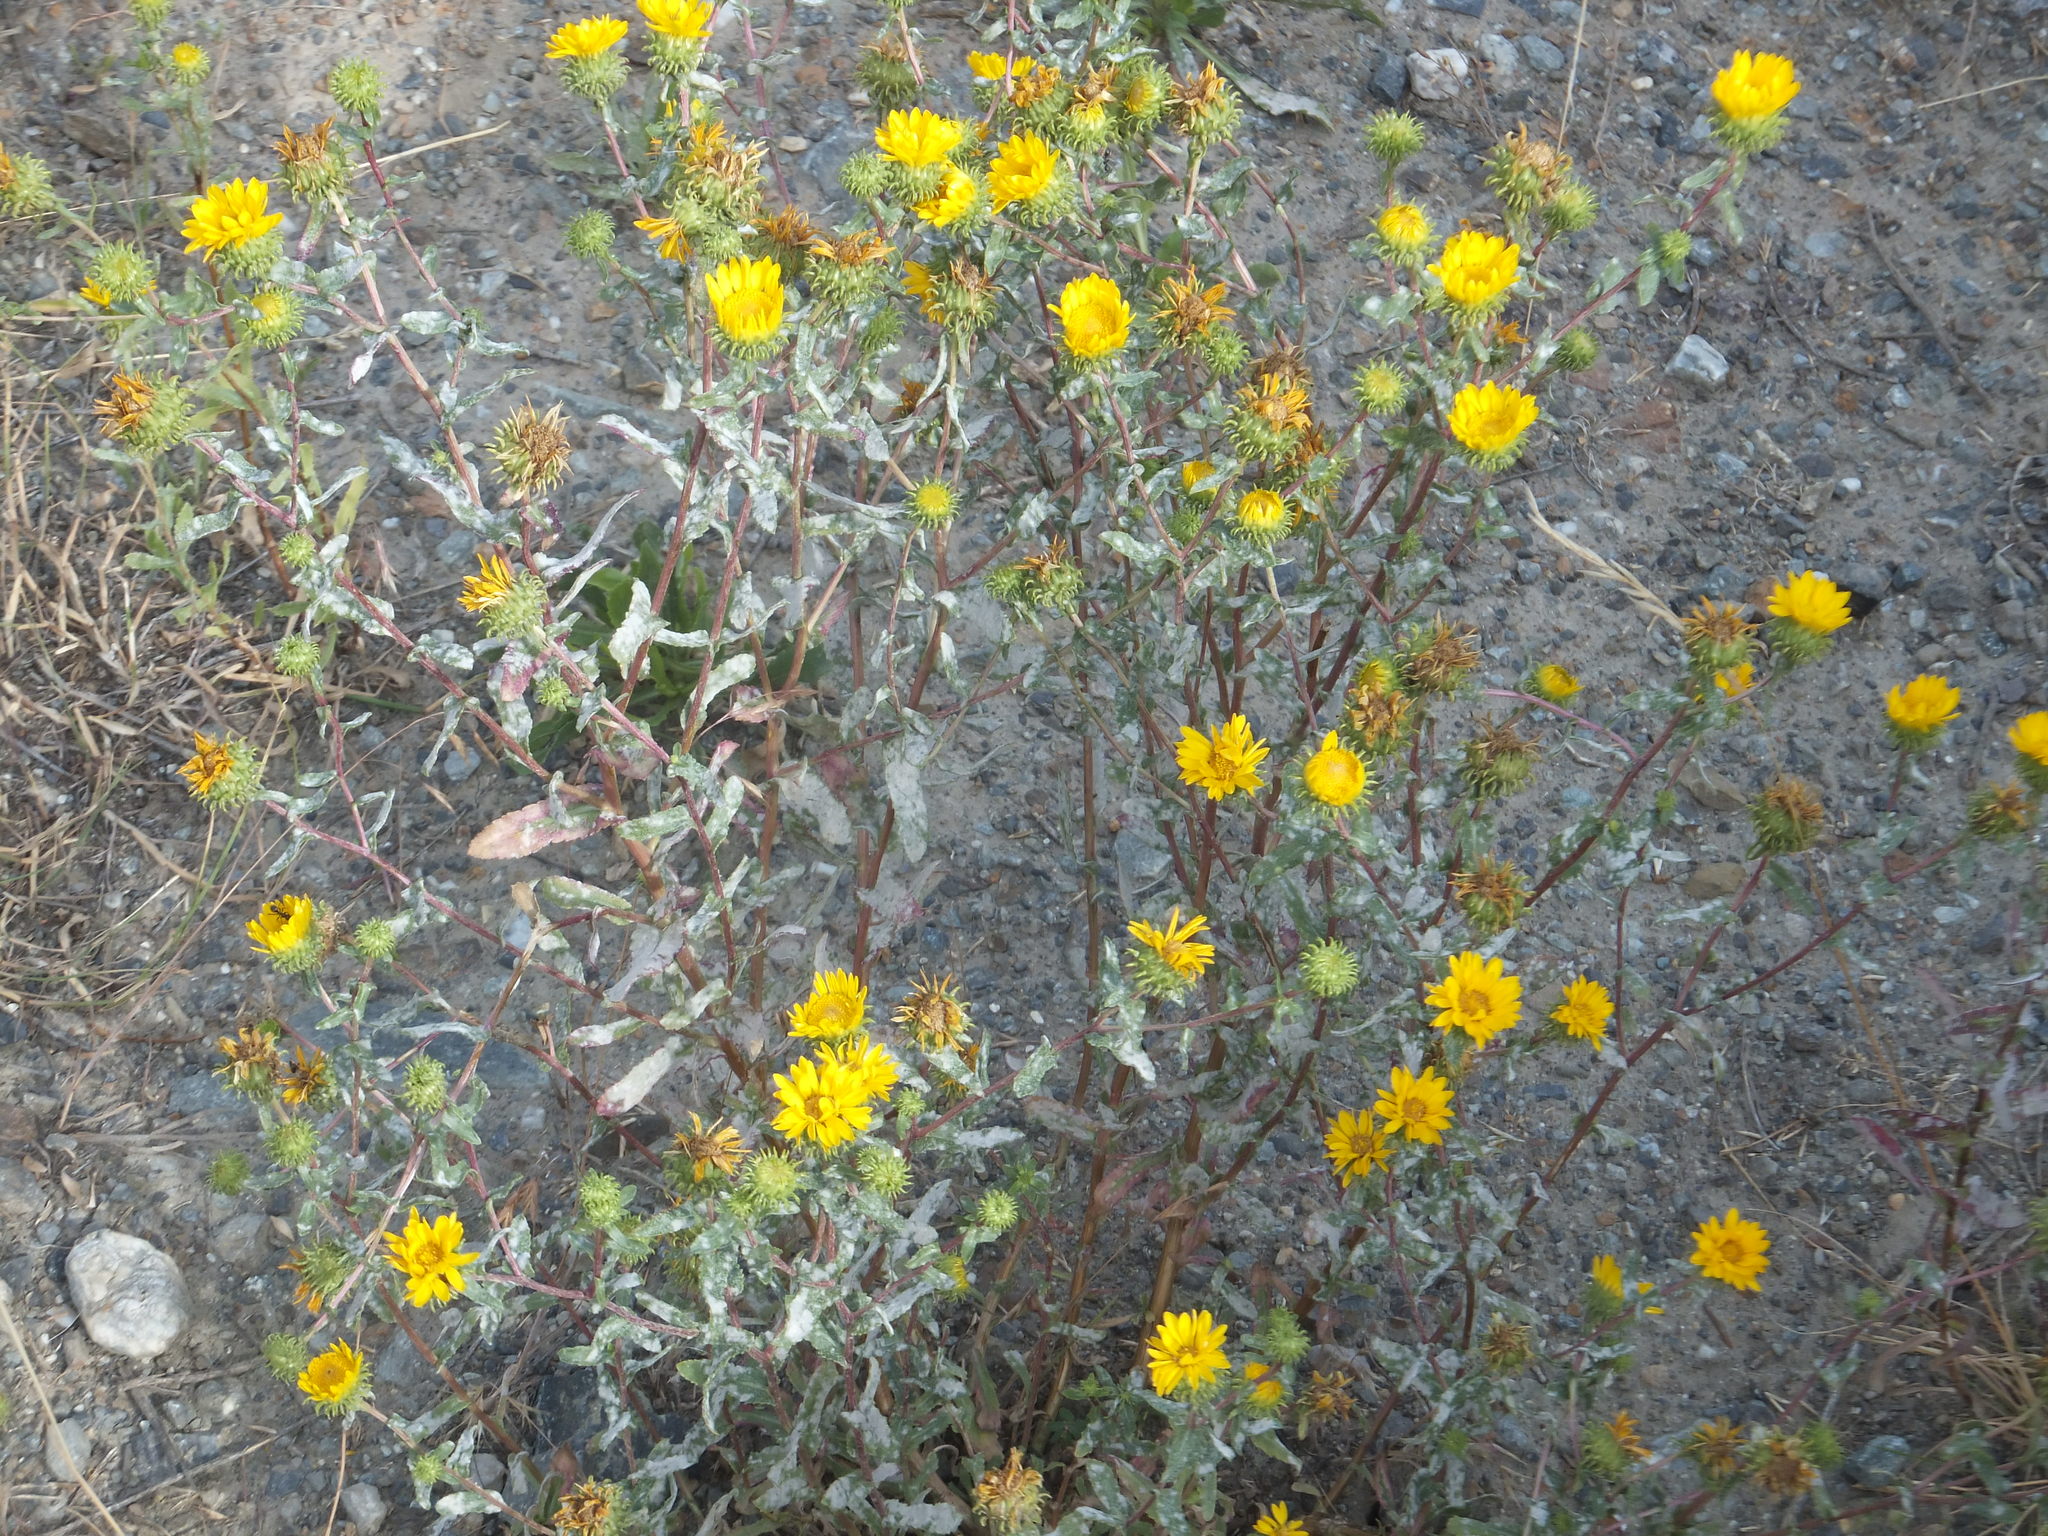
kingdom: Plantae
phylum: Tracheophyta
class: Magnoliopsida
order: Asterales
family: Asteraceae
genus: Grindelia
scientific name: Grindelia squarrosa
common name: Curly-cup gumweed
